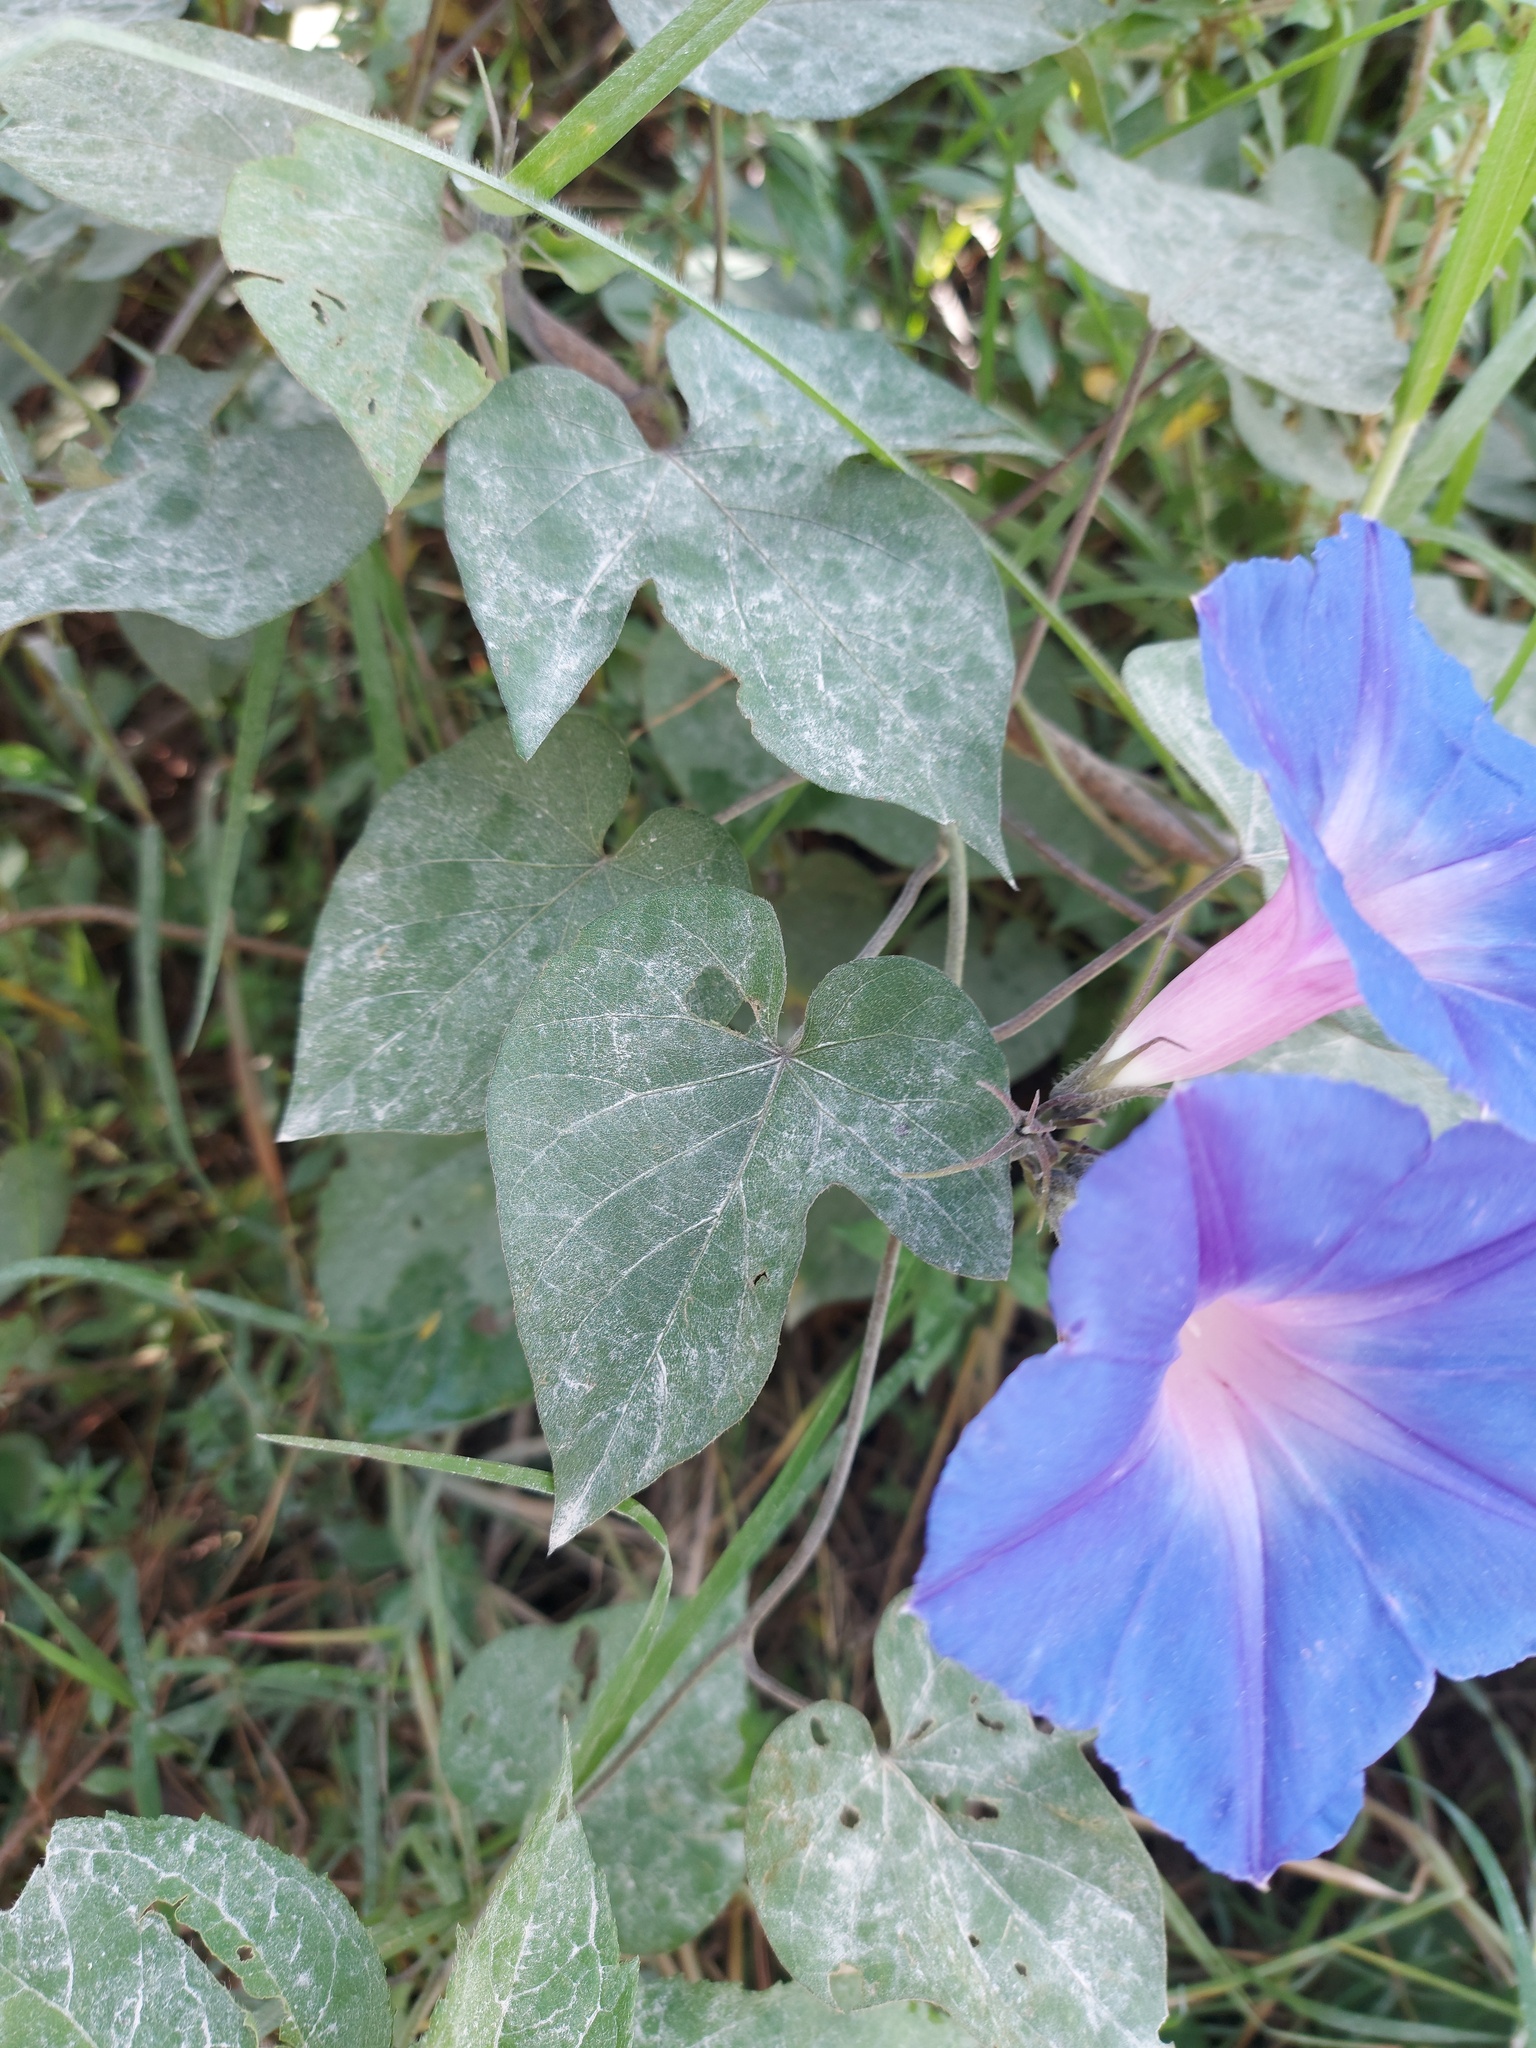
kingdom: Plantae
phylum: Tracheophyta
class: Magnoliopsida
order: Solanales
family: Convolvulaceae
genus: Ipomoea
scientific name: Ipomoea indica
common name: Blue dawnflower
